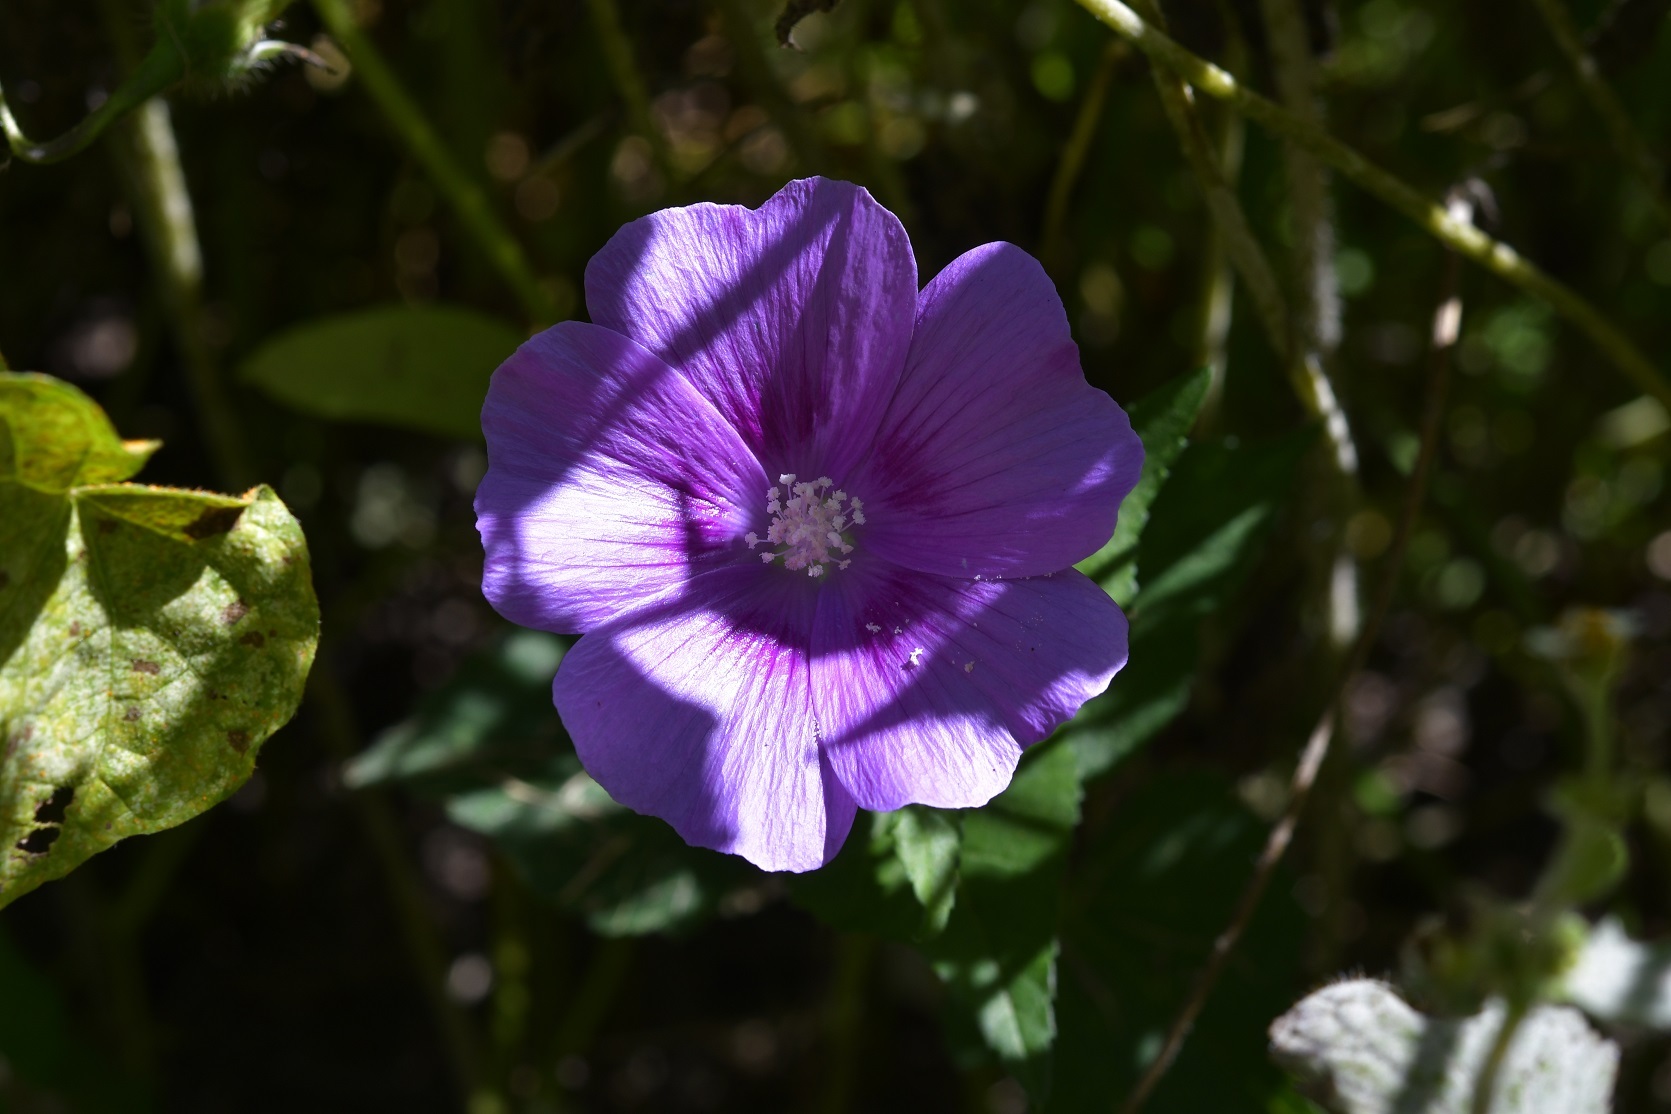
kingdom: Plantae
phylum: Tracheophyta
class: Magnoliopsida
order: Malvales
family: Malvaceae
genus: Anoda
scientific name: Anoda cristata
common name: Spurred anoda
